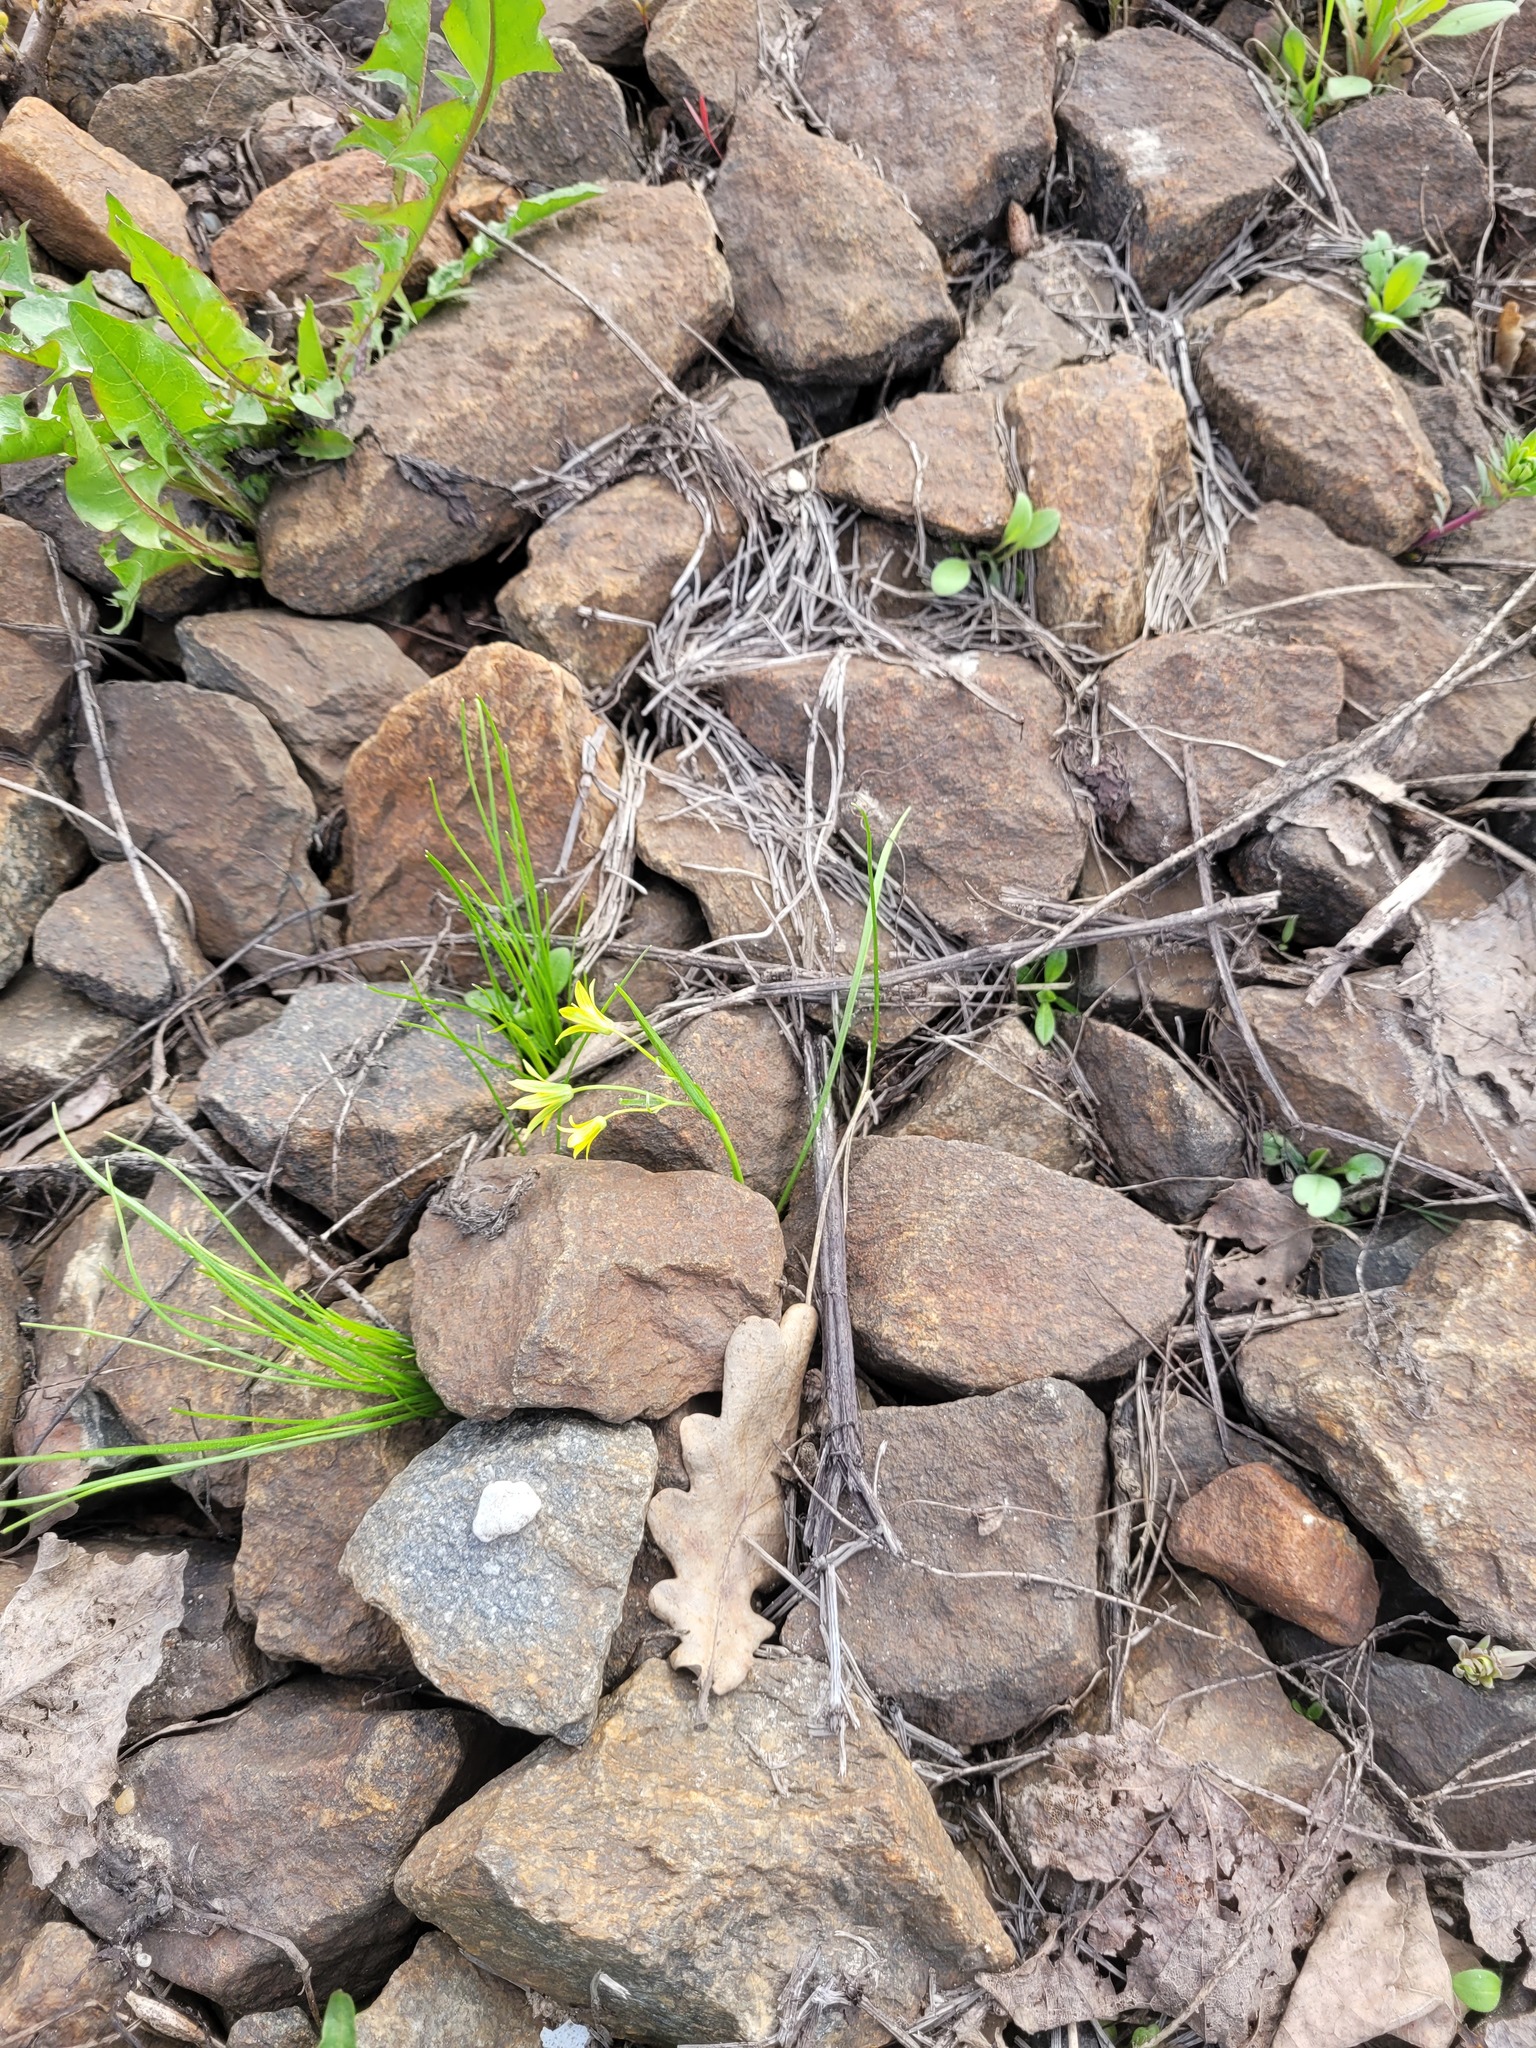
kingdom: Plantae
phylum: Tracheophyta
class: Liliopsida
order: Liliales
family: Liliaceae
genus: Gagea
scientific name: Gagea minima
